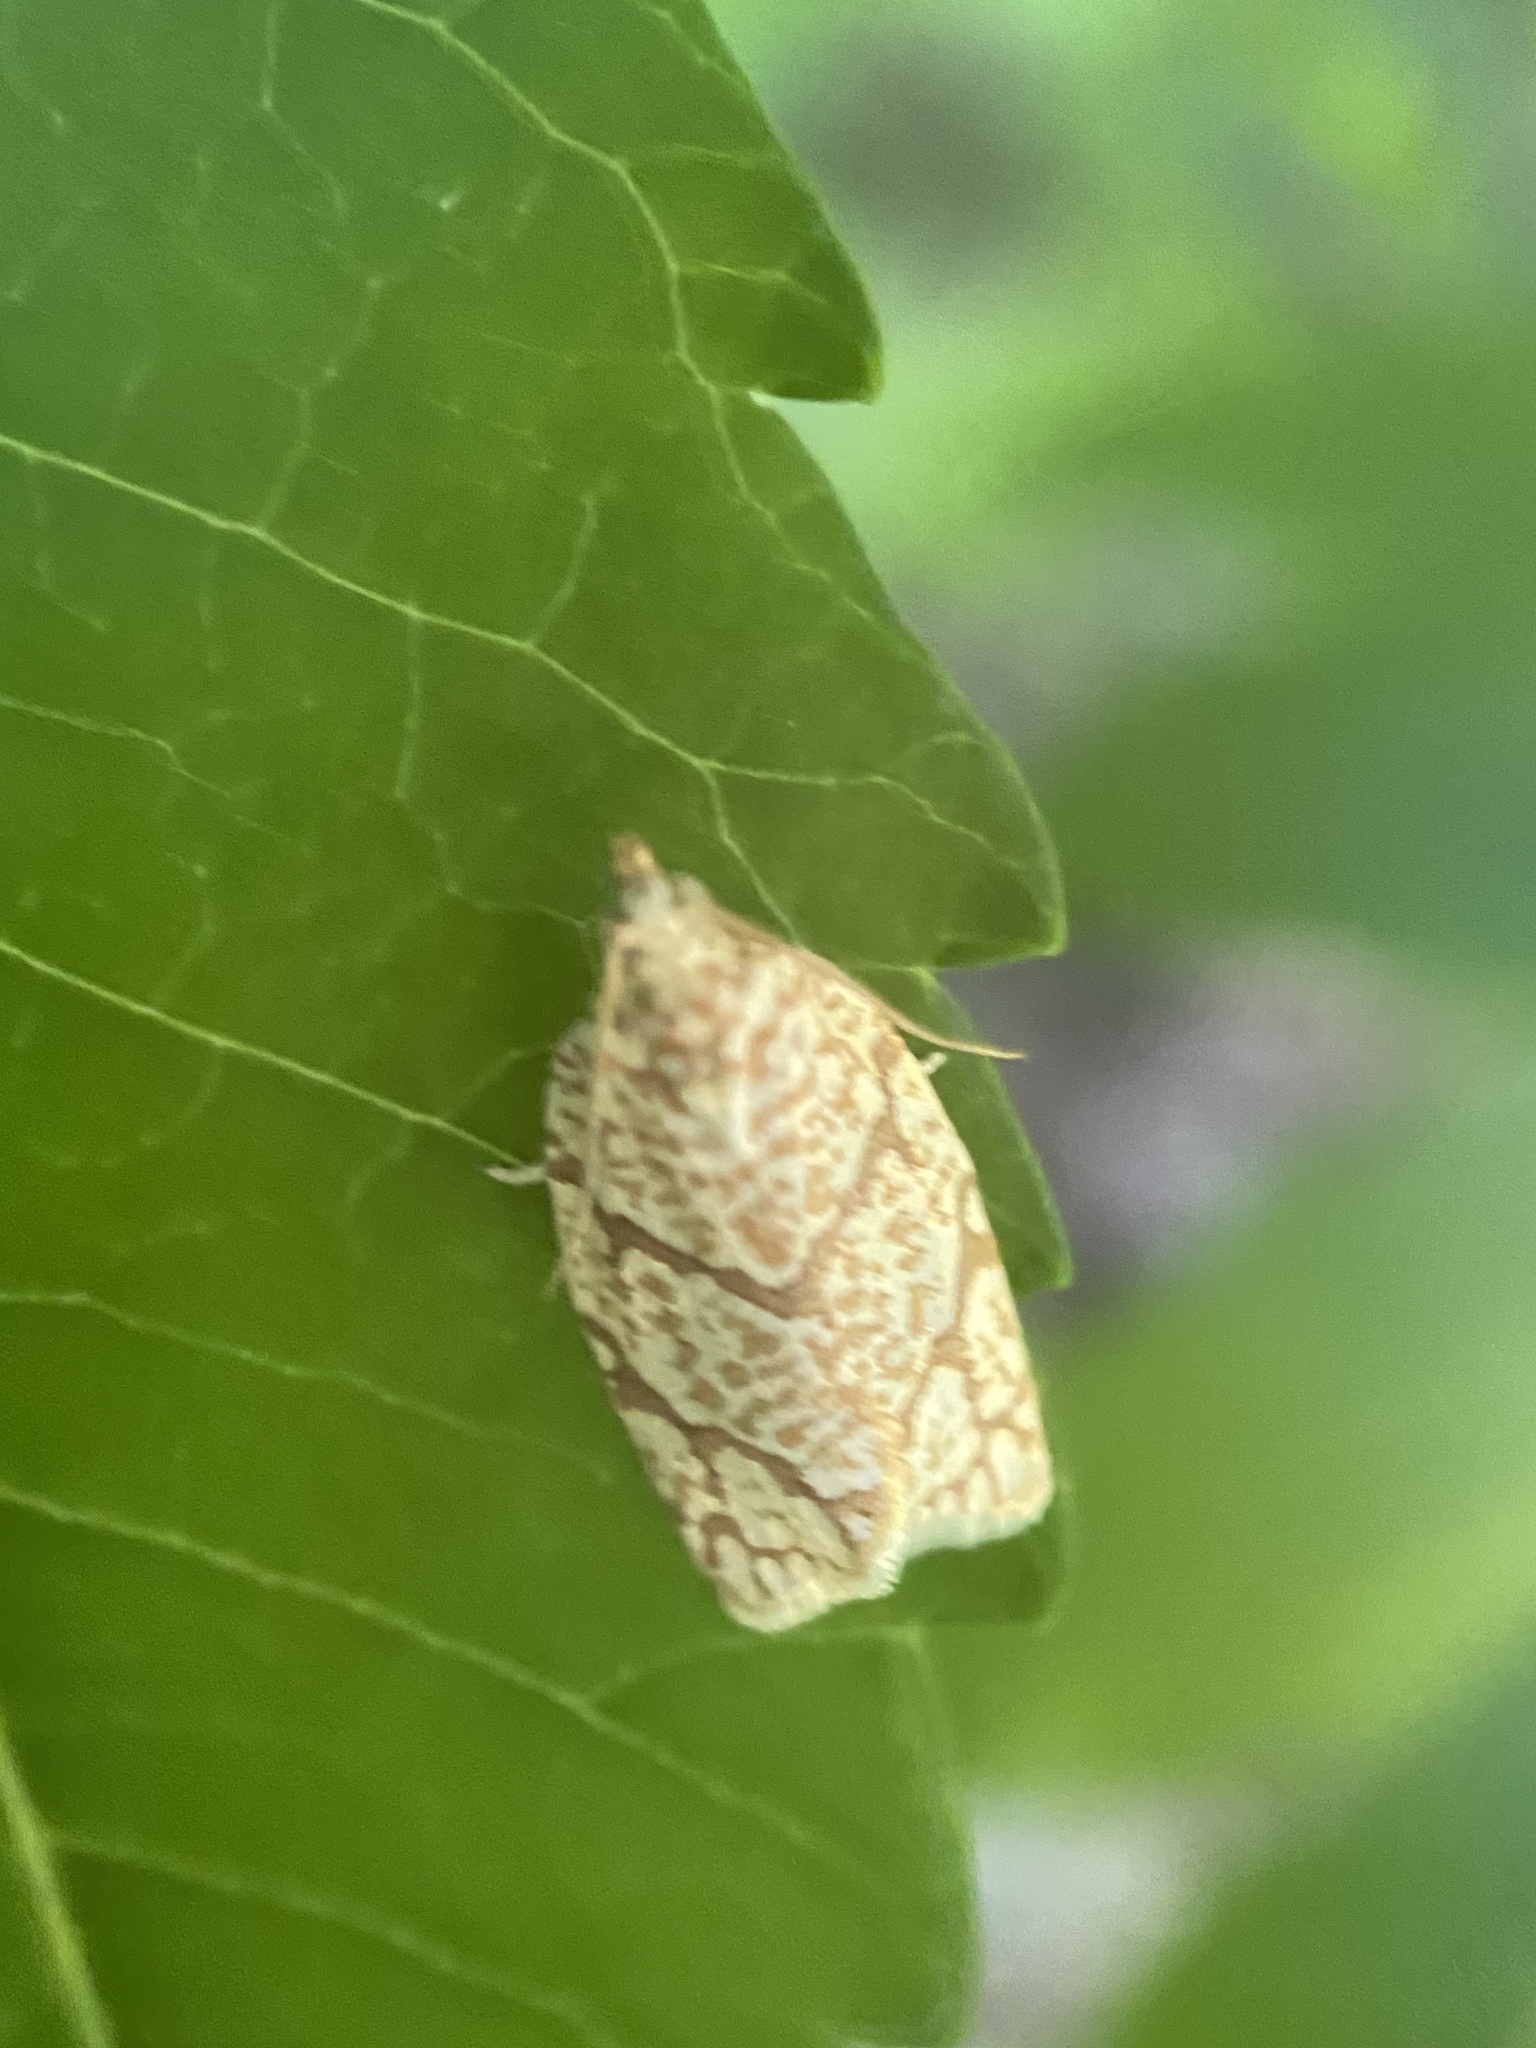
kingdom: Animalia
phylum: Arthropoda
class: Insecta
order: Lepidoptera
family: Tortricidae
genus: Argyrotaenia
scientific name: Argyrotaenia quercifoliana
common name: Yellow-winged oak leafroller moth
